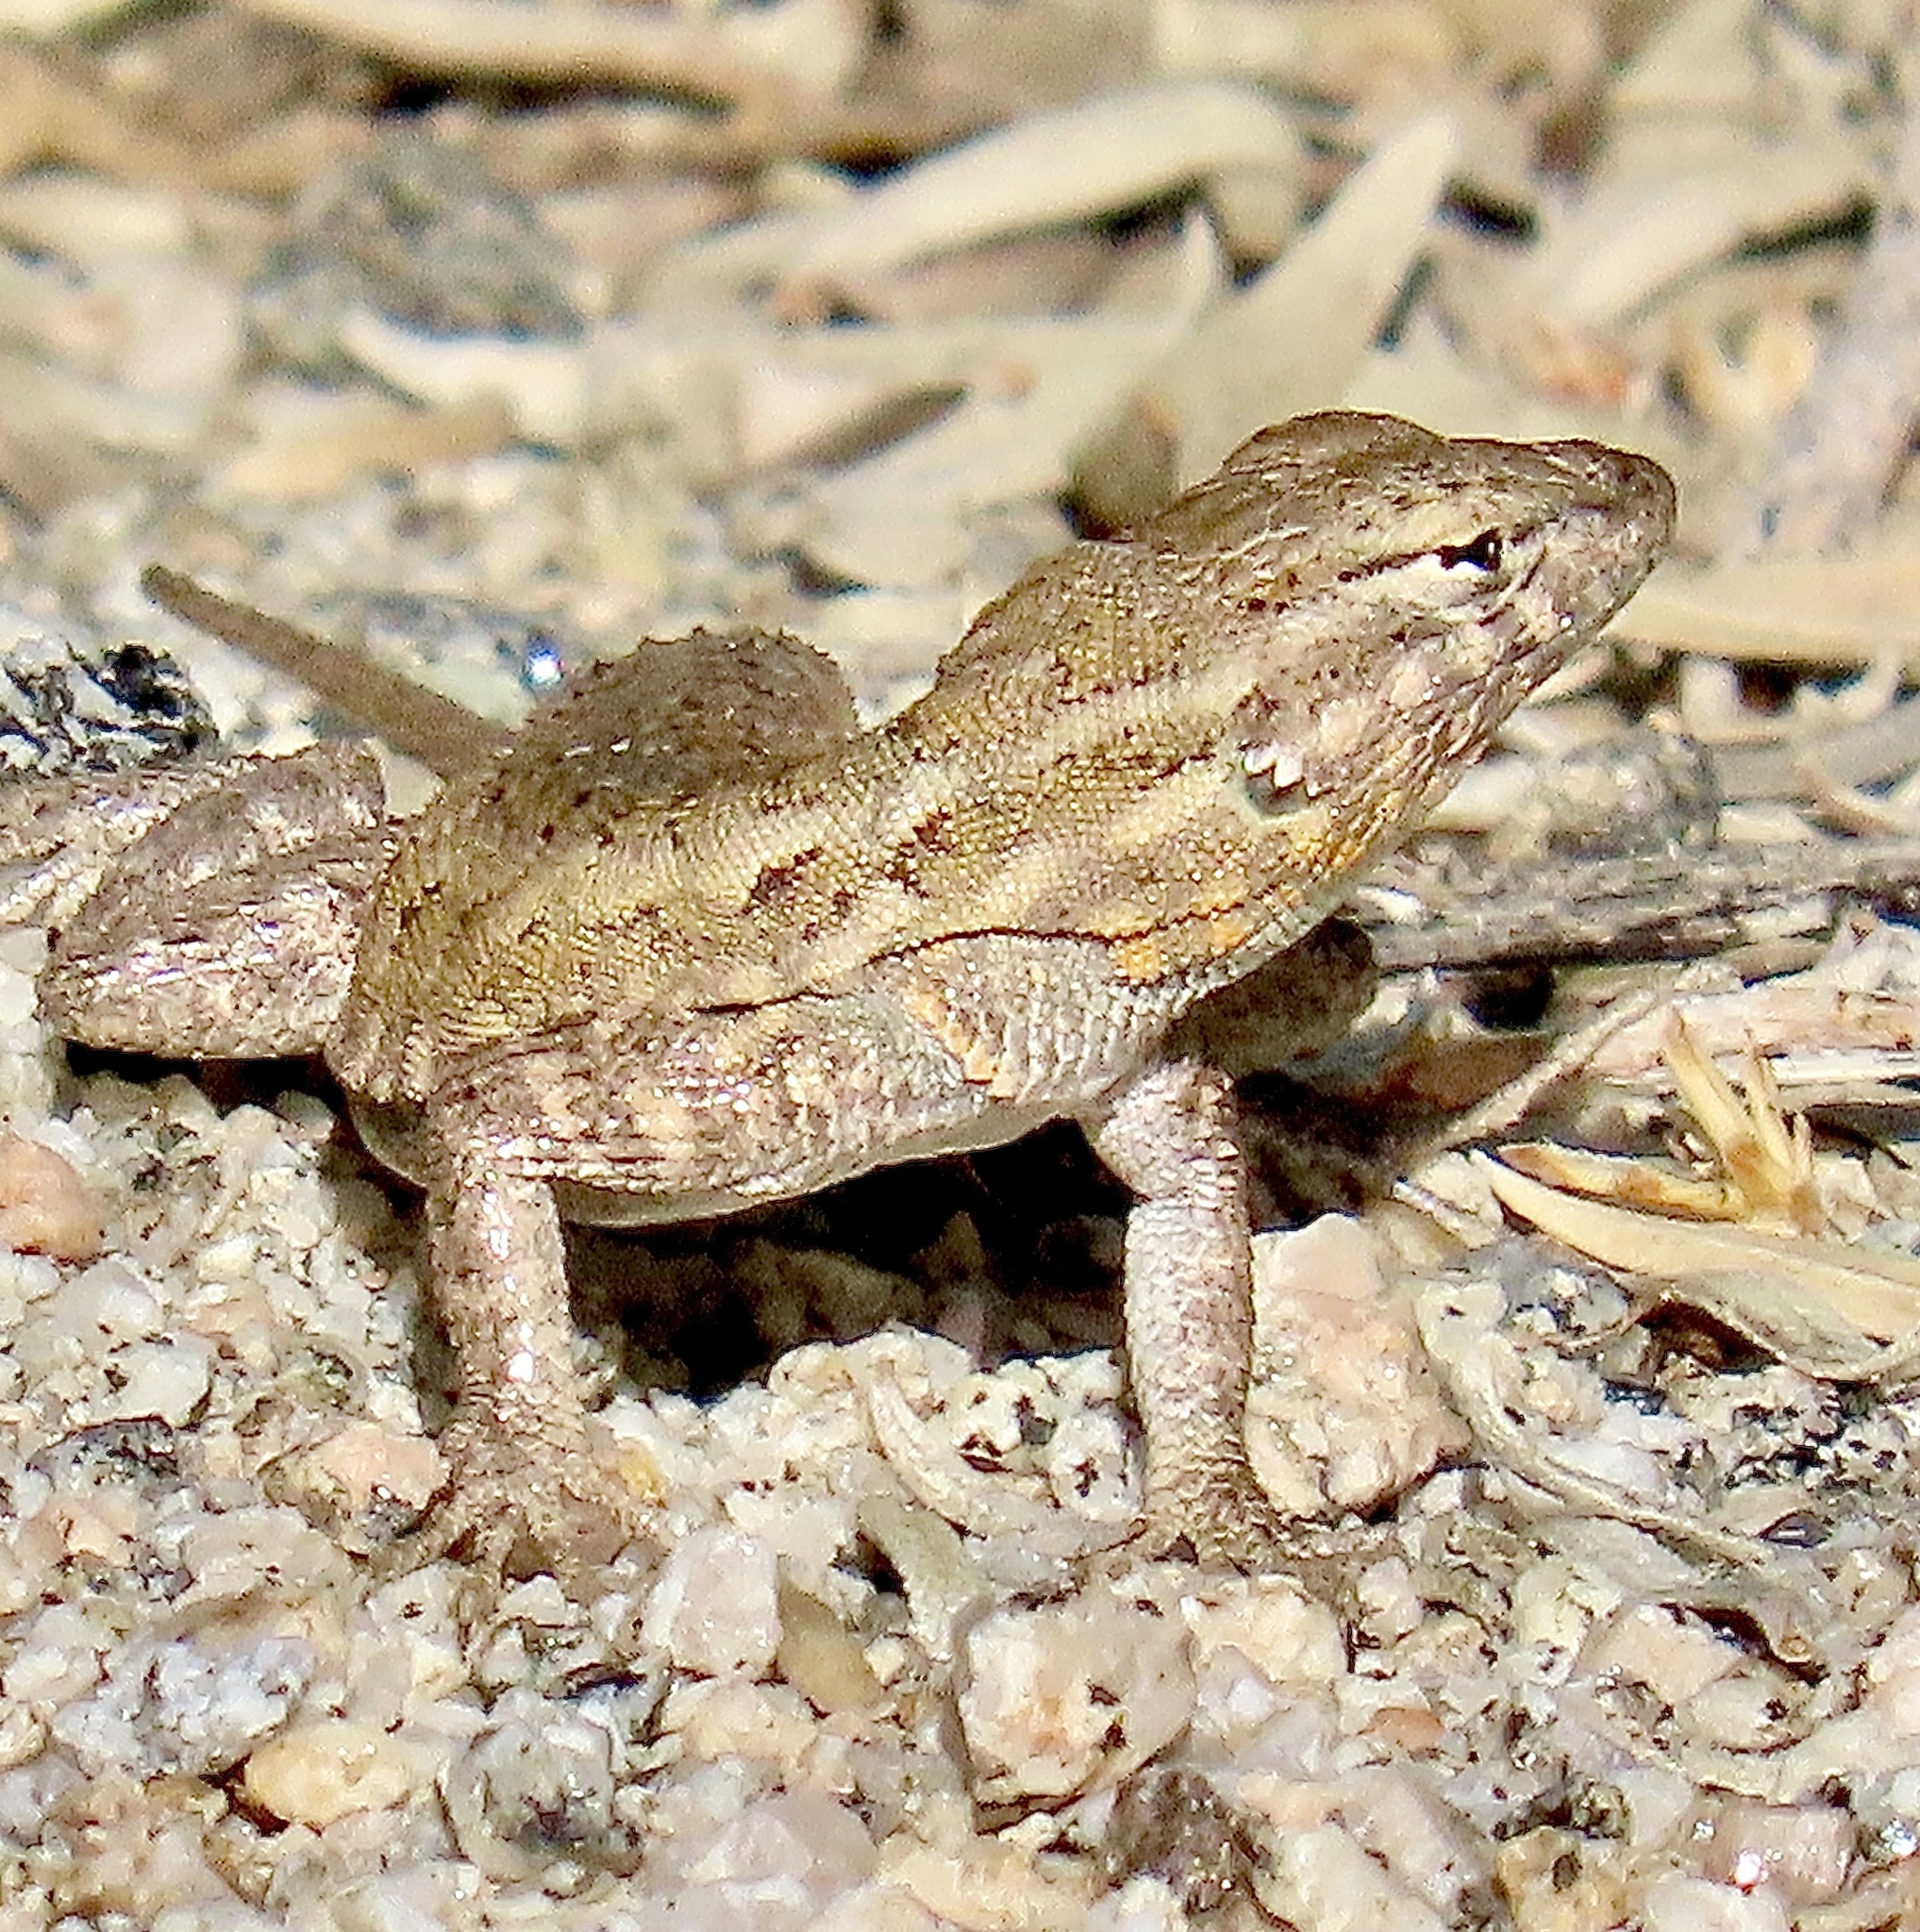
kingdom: Animalia
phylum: Chordata
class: Squamata
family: Phrynosomatidae
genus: Uta
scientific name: Uta stansburiana
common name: Side-blotched lizard
